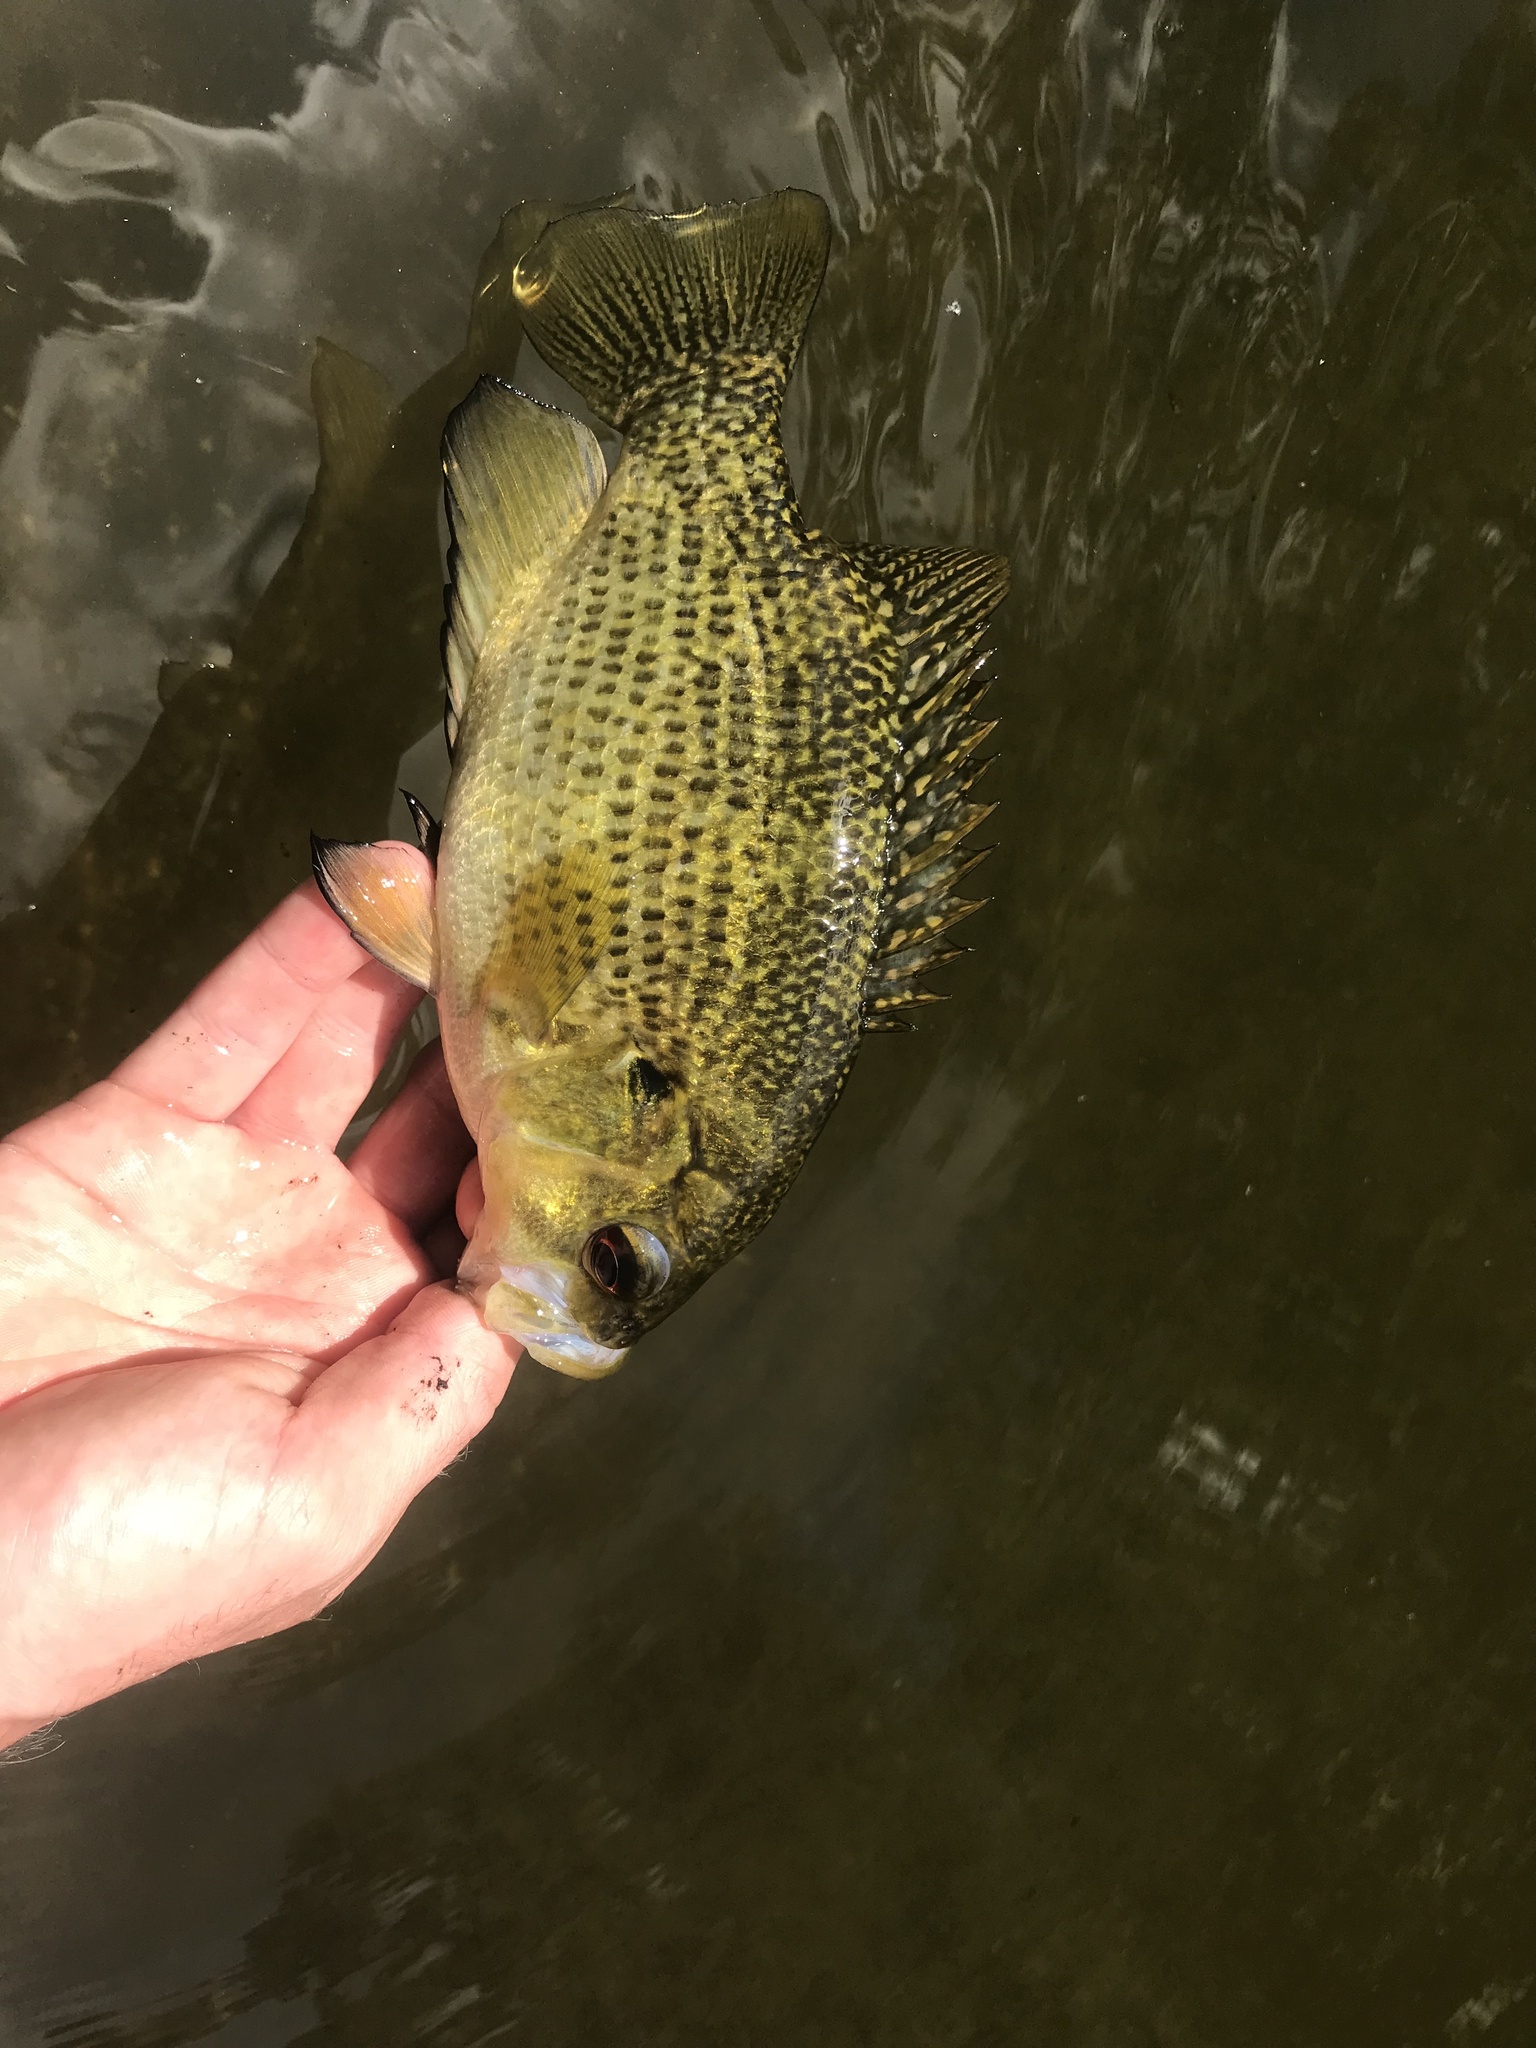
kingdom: Animalia
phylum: Chordata
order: Perciformes
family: Centrarchidae
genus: Ambloplites
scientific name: Ambloplites rupestris
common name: Rock bass
